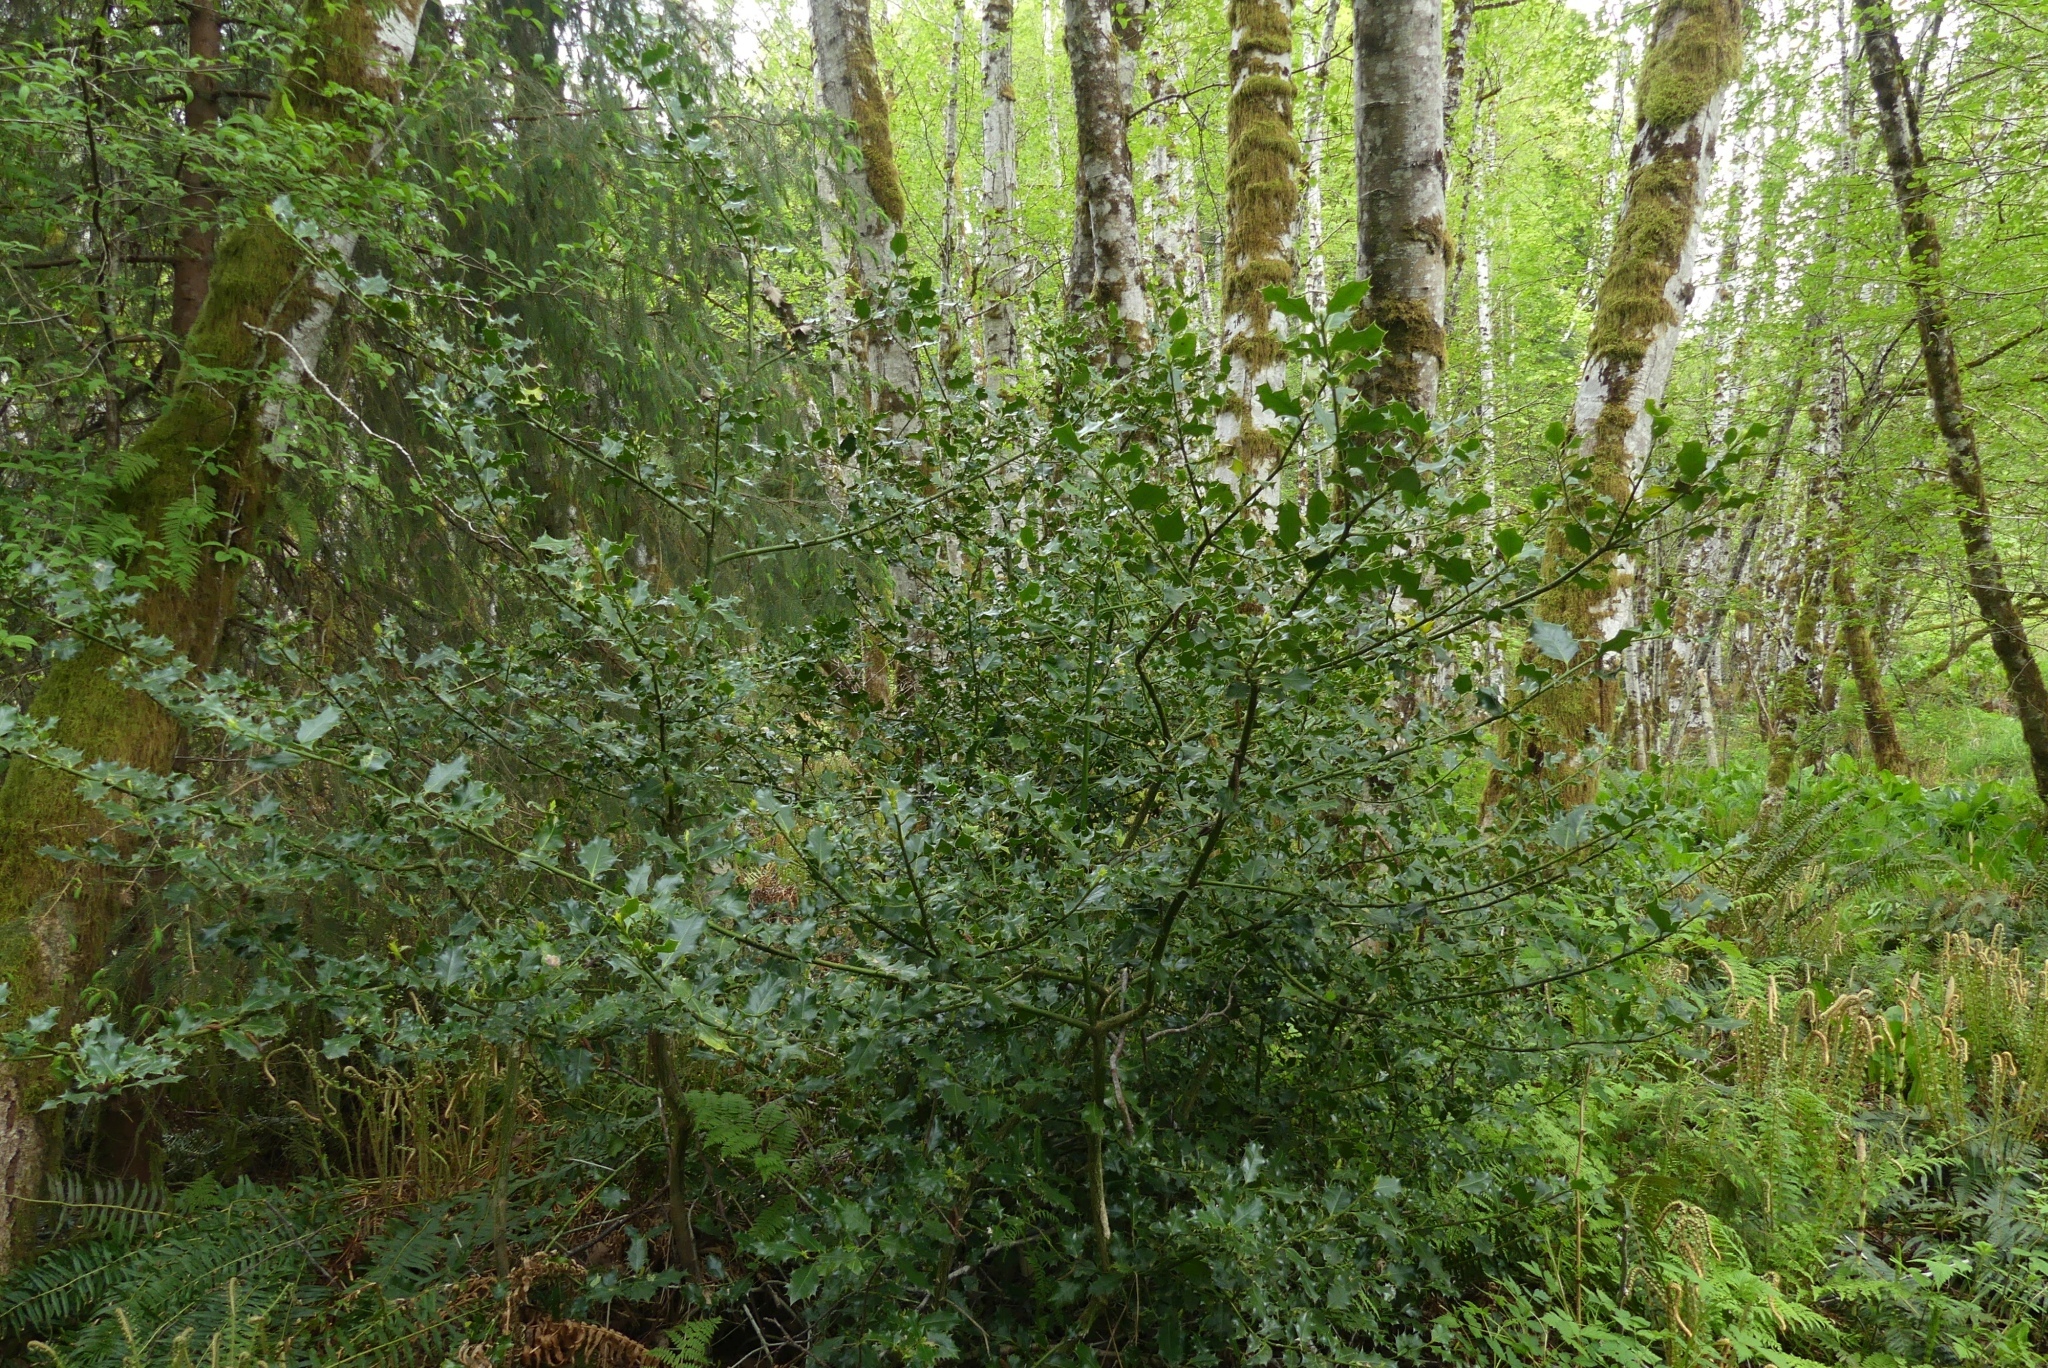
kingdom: Plantae
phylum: Tracheophyta
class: Magnoliopsida
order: Aquifoliales
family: Aquifoliaceae
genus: Ilex
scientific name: Ilex aquifolium
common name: English holly
